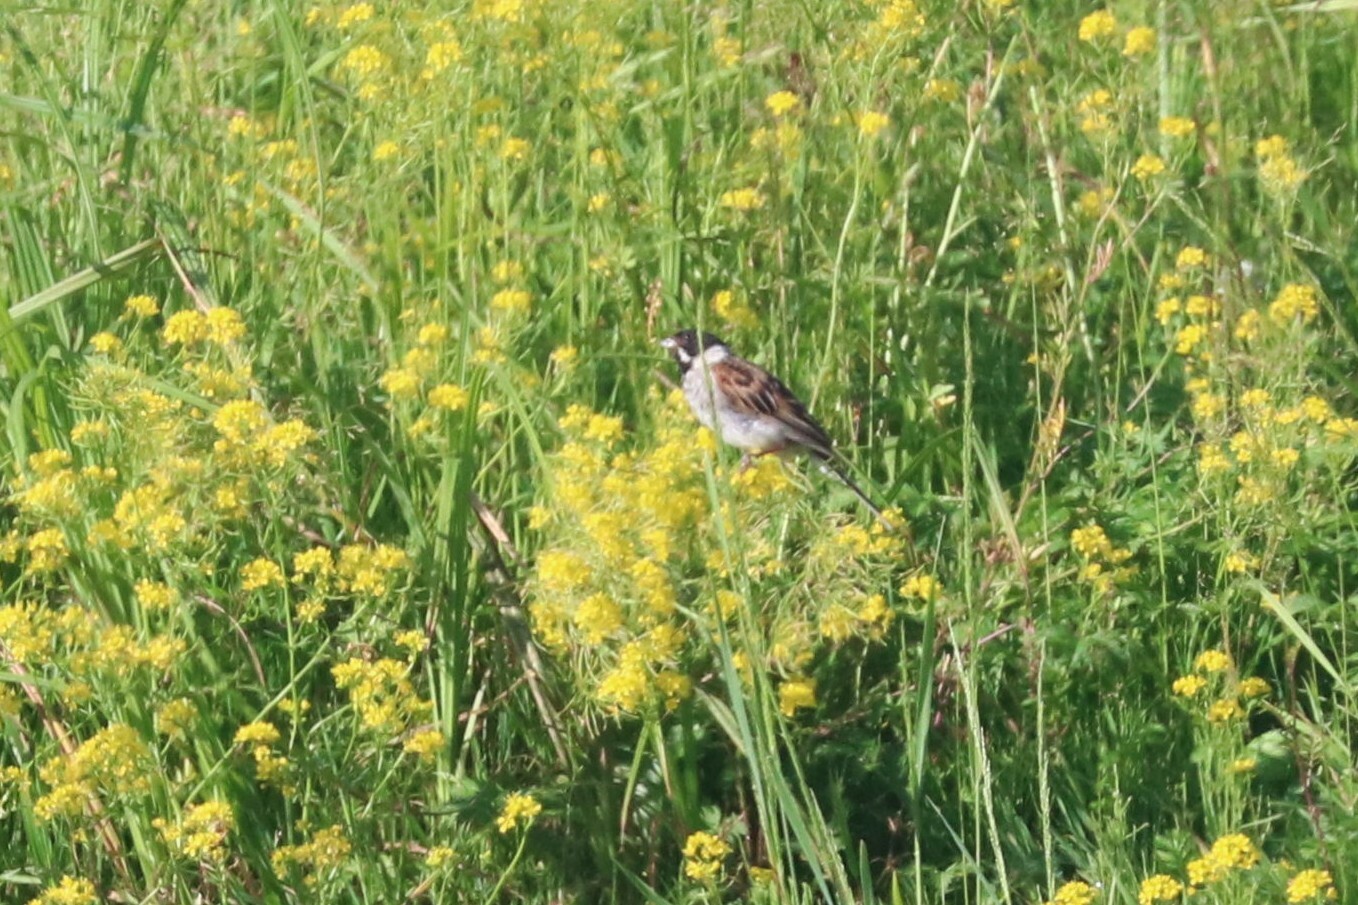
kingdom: Animalia
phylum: Chordata
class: Aves
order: Passeriformes
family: Emberizidae
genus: Emberiza
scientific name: Emberiza schoeniclus
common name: Reed bunting
